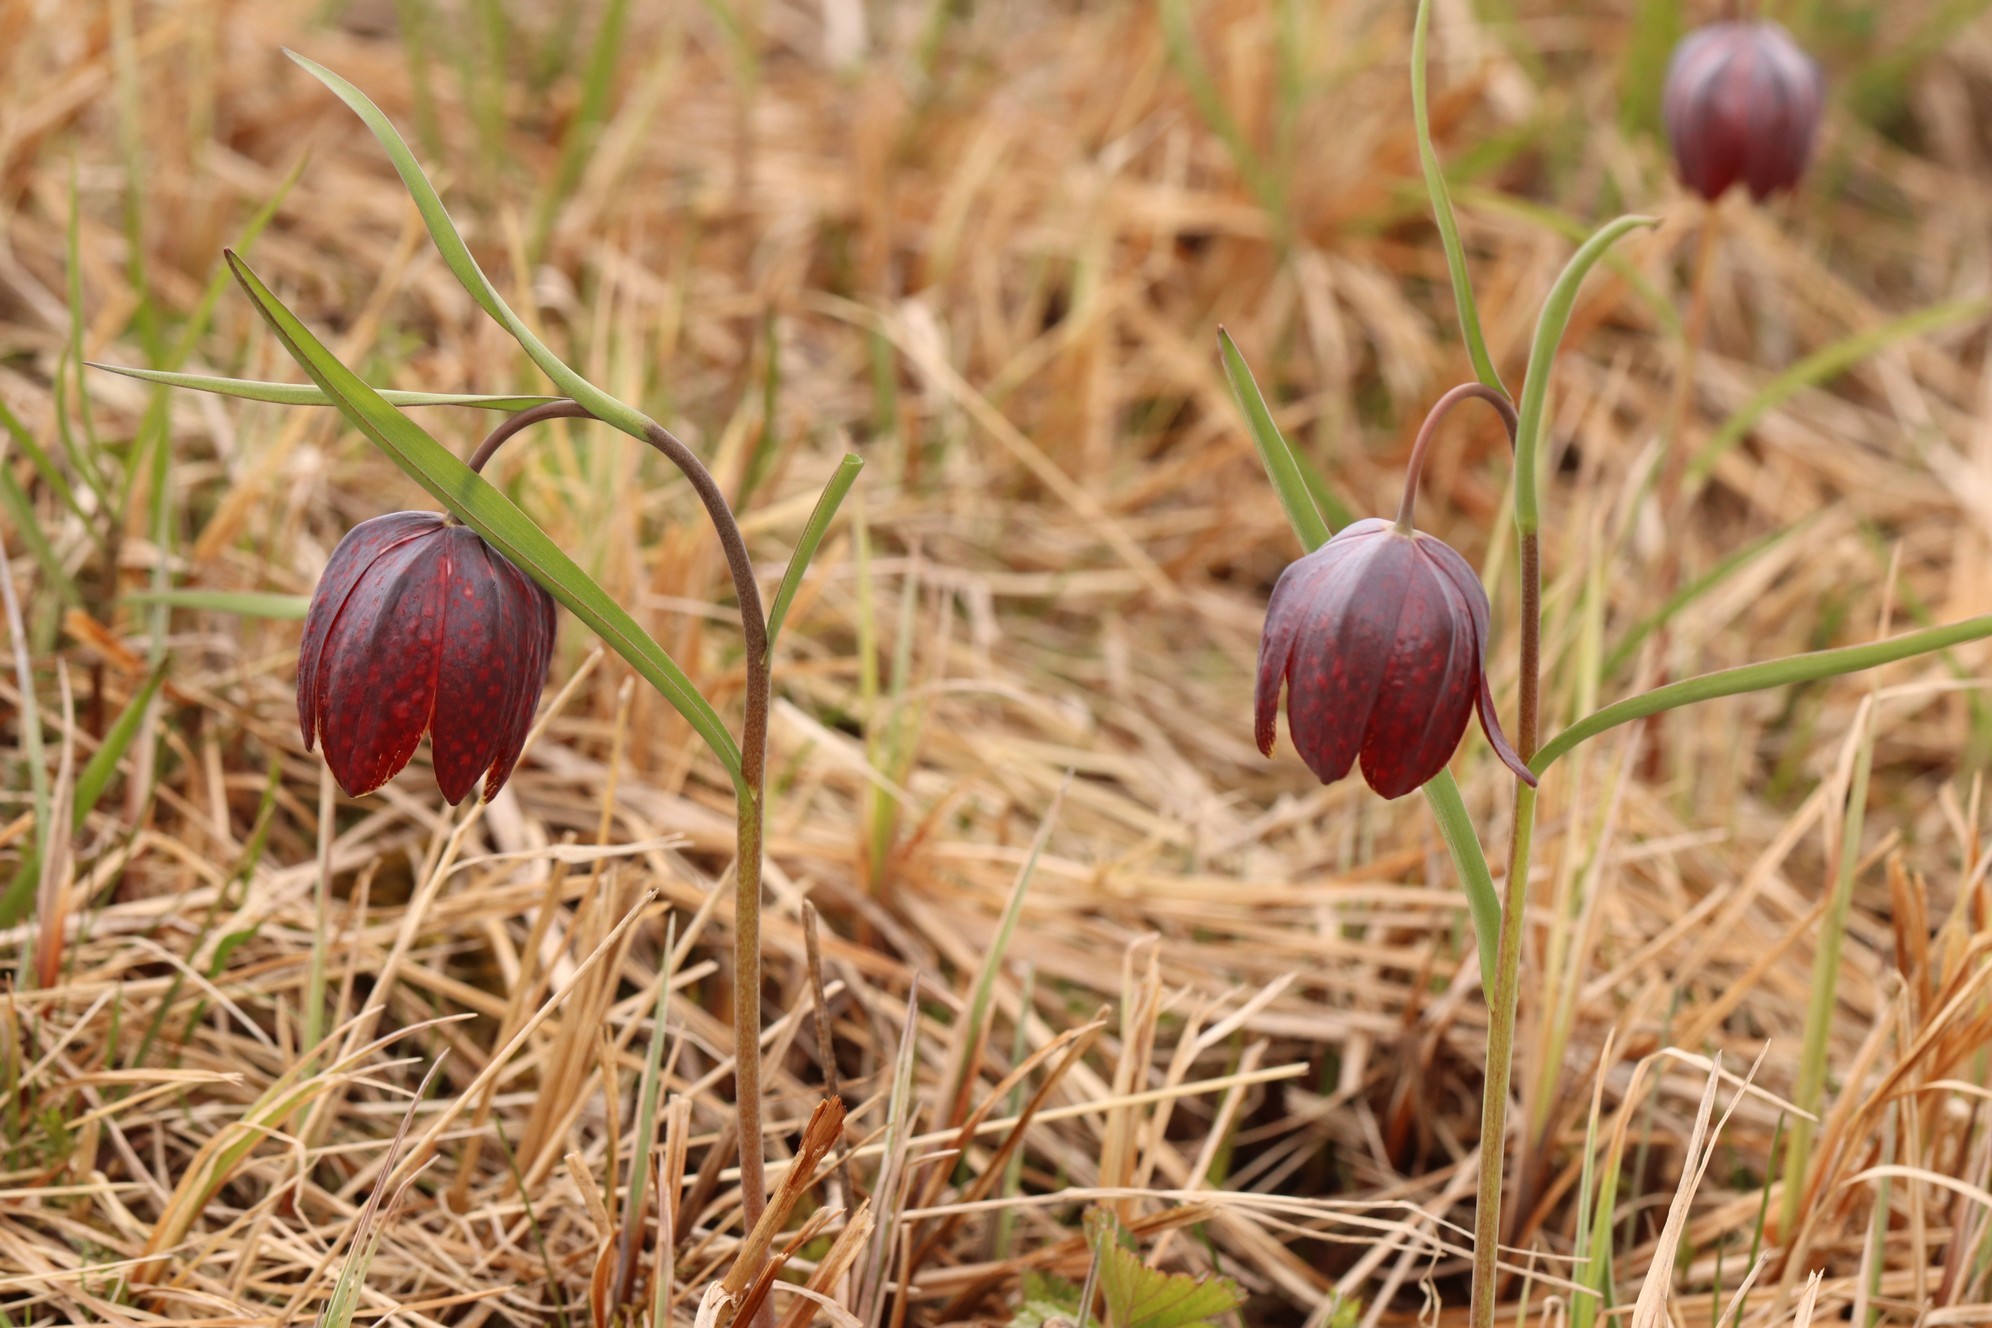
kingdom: Plantae
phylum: Tracheophyta
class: Liliopsida
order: Liliales
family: Liliaceae
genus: Fritillaria
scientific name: Fritillaria meleagris
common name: Fritillary
